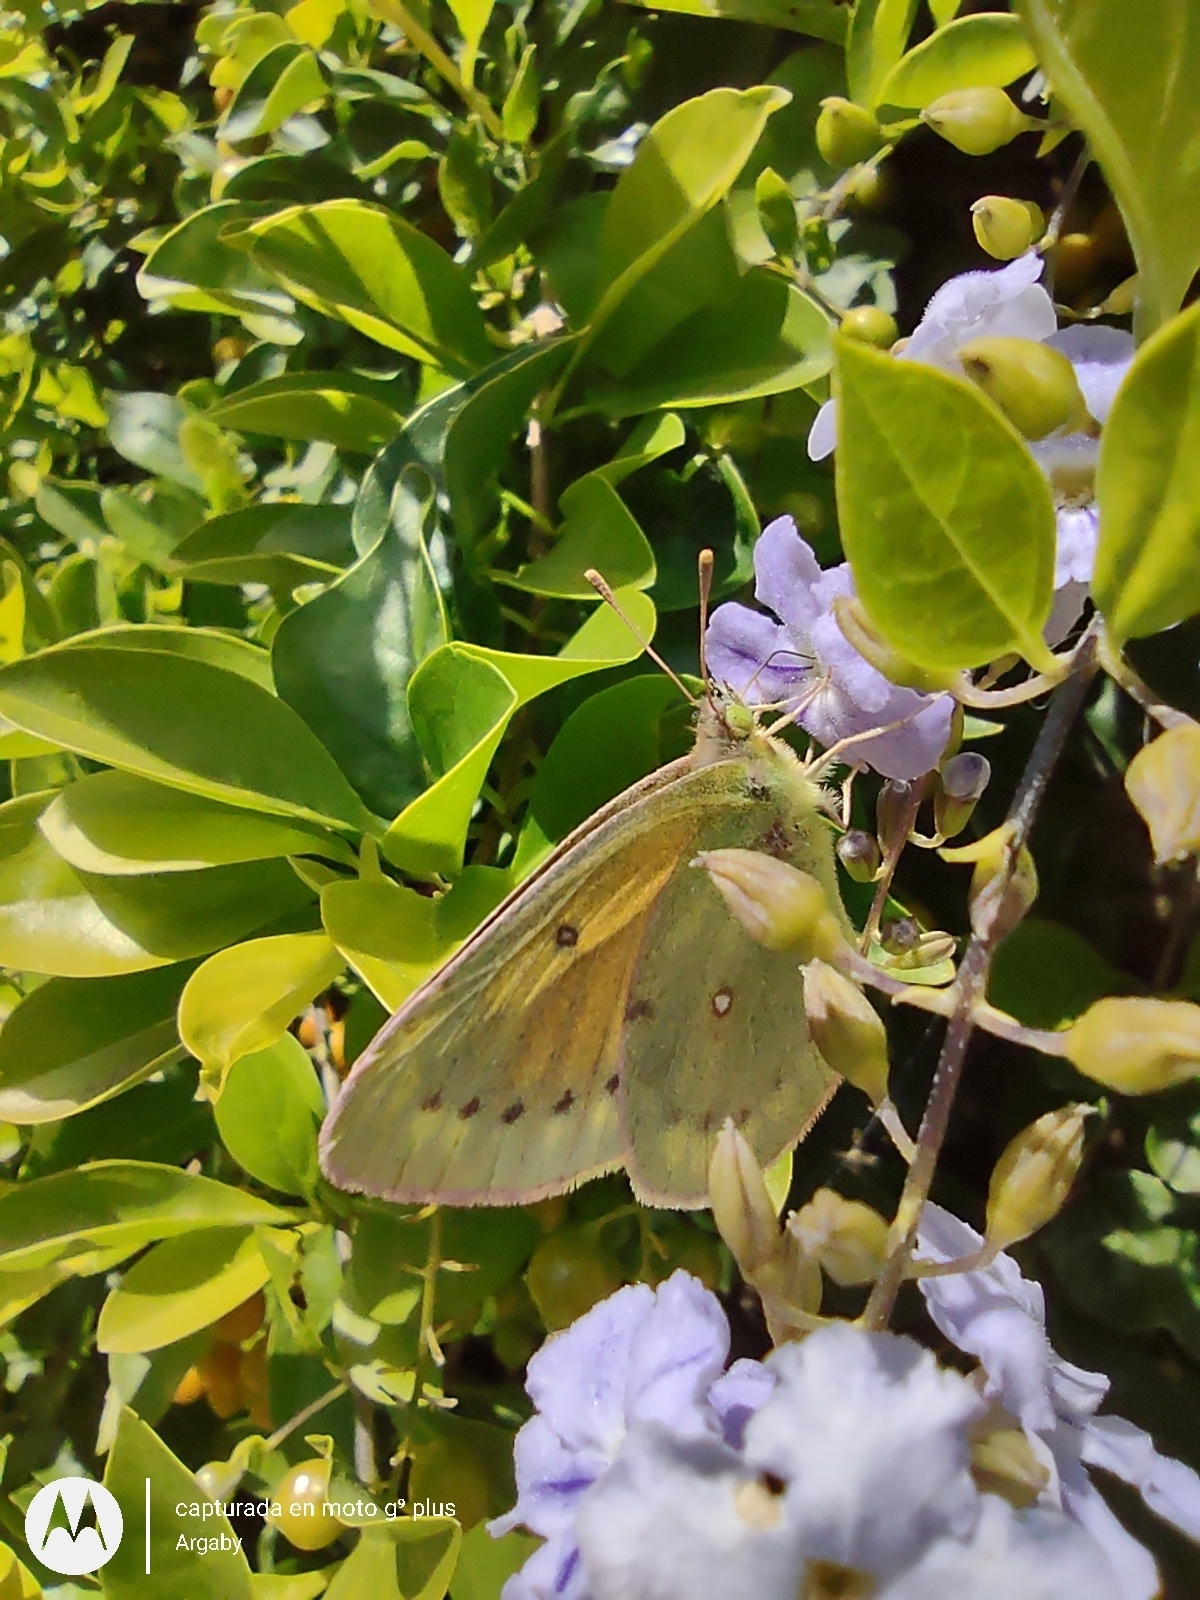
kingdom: Animalia
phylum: Arthropoda
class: Insecta
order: Lepidoptera
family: Pieridae
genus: Colias
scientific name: Colias lesbia
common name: Lesbia clouded yellow
